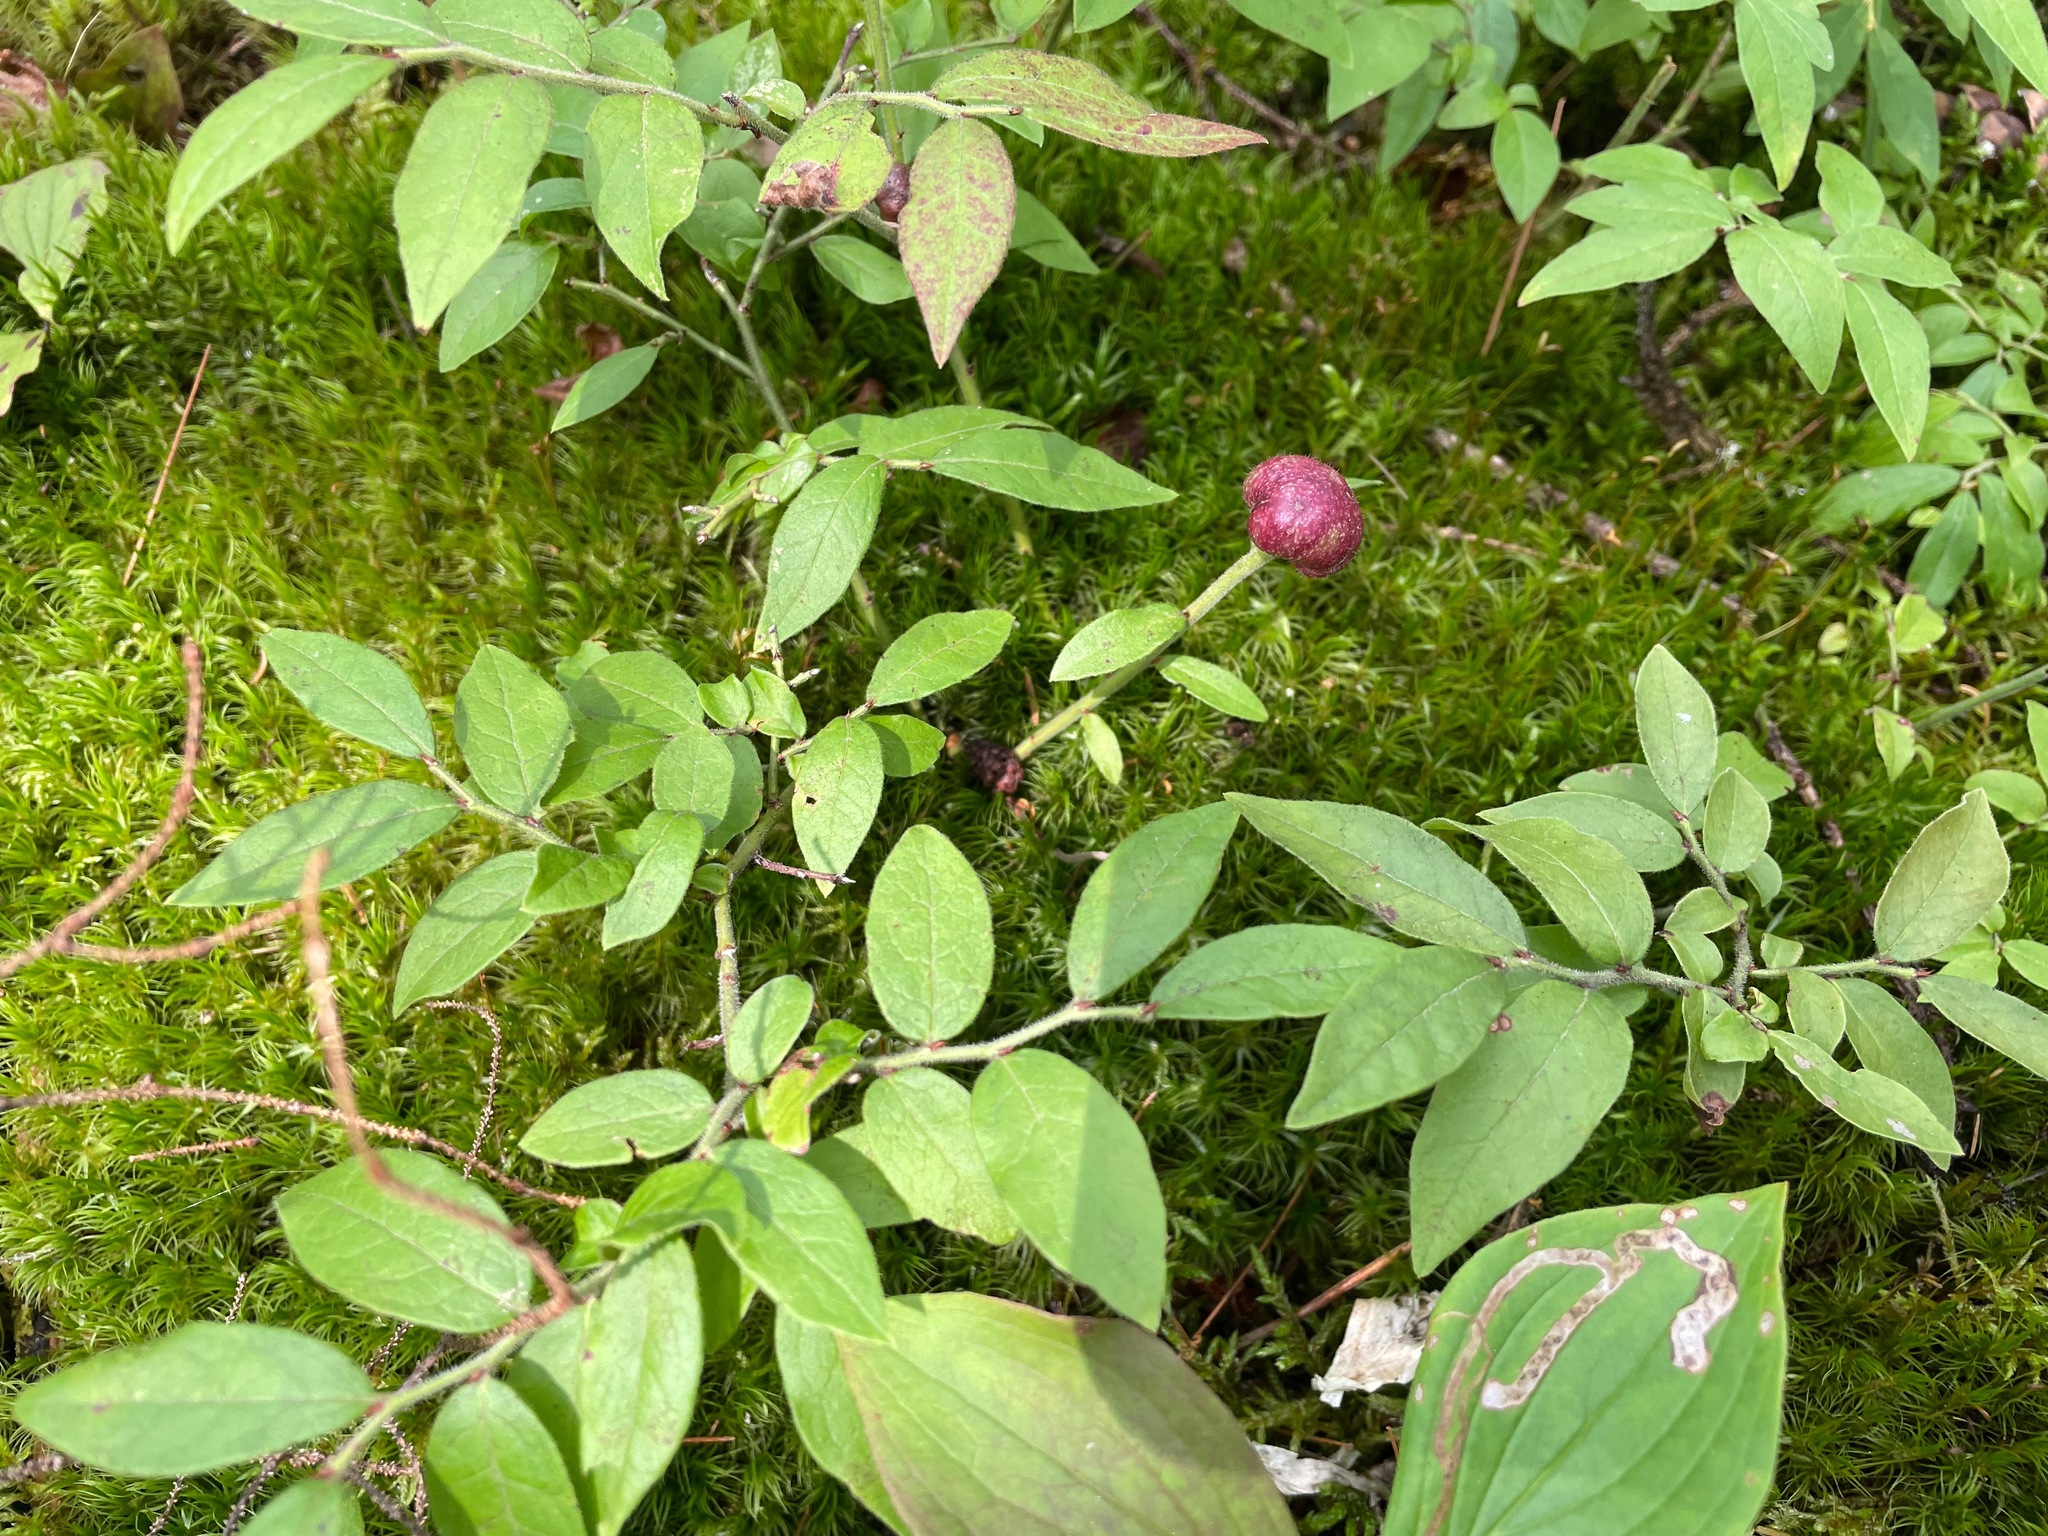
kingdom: Animalia
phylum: Arthropoda
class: Insecta
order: Hymenoptera
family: Pteromalidae
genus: Hemadas
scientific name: Hemadas nubilipennis
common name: Blueberry stem gall wasp
